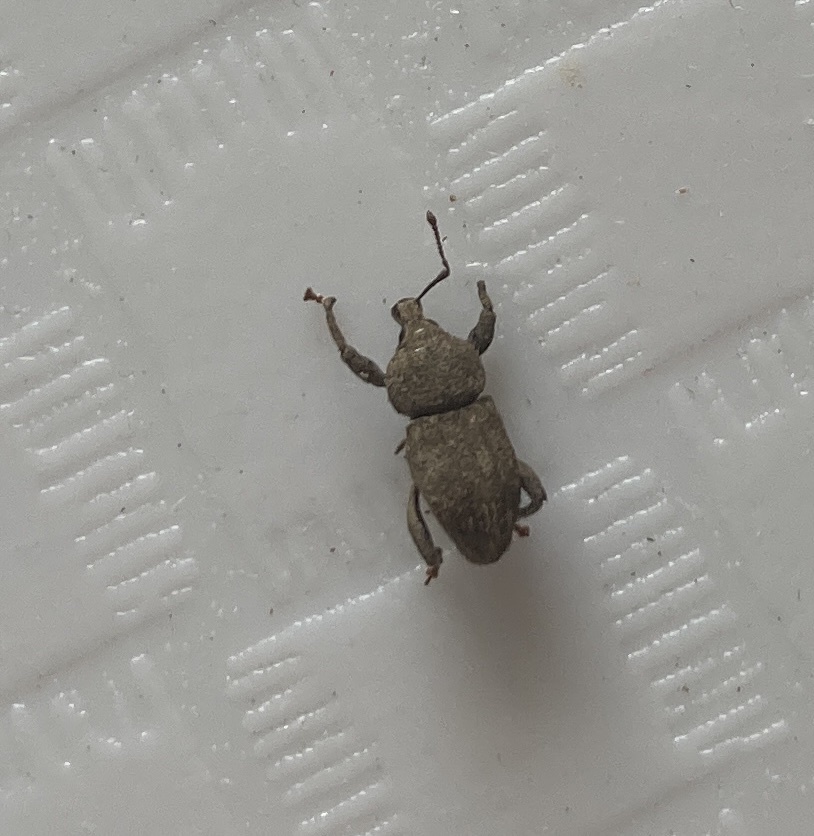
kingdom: Animalia
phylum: Arthropoda
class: Insecta
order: Coleoptera
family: Curculionidae
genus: Mandalotus
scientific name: Mandalotus miricollis
